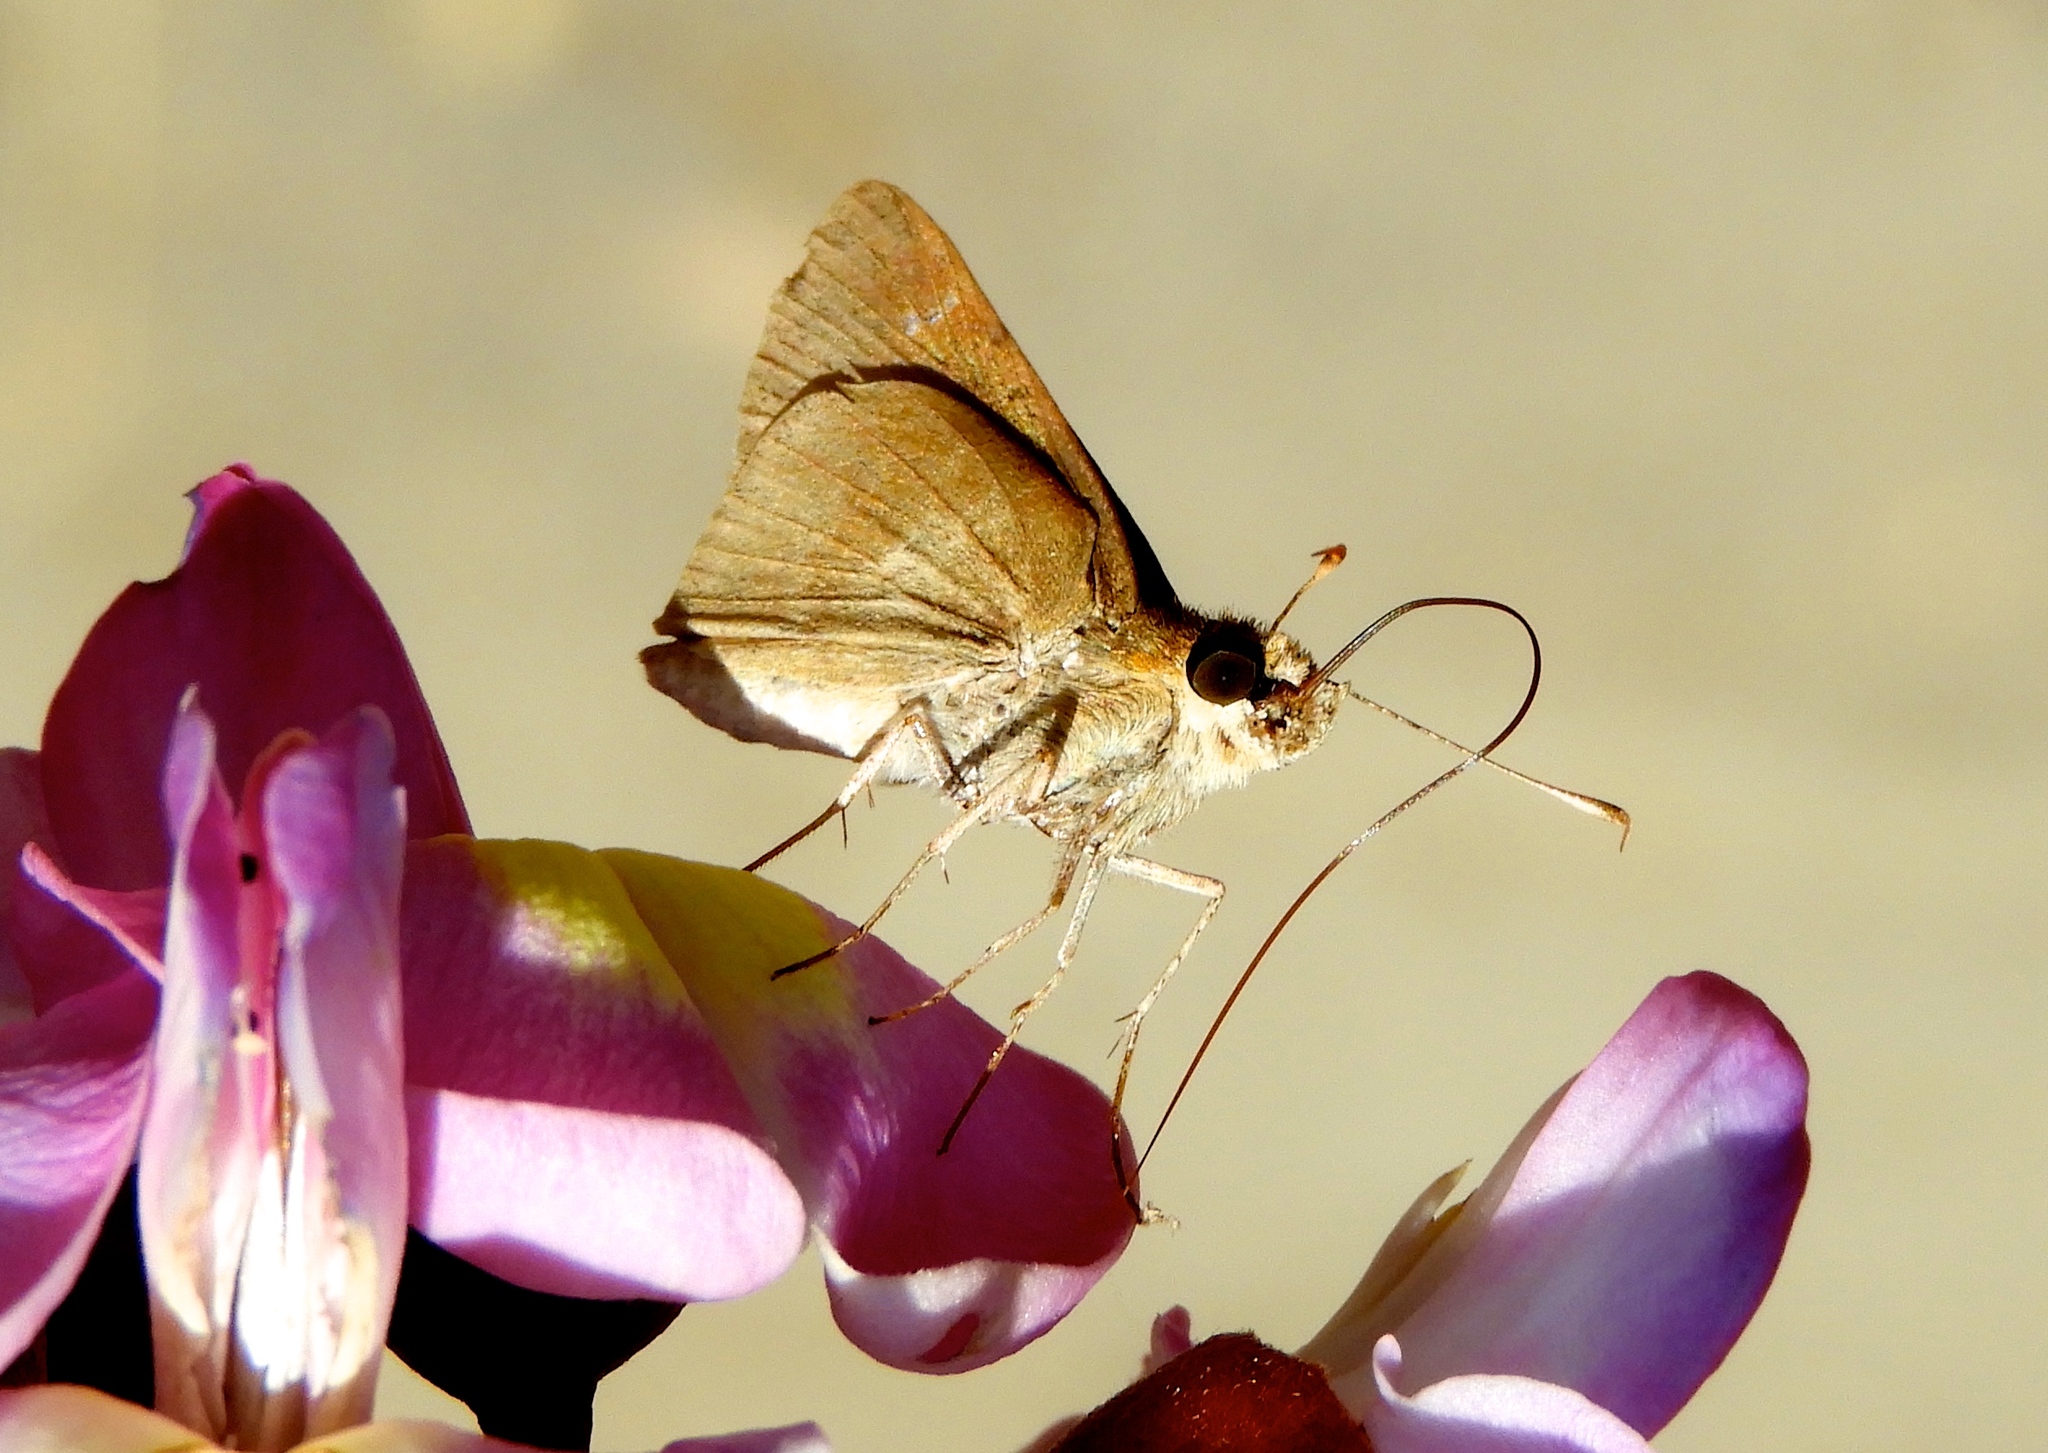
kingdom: Animalia
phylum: Arthropoda
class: Insecta
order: Lepidoptera
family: Hesperiidae
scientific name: Hesperiidae
